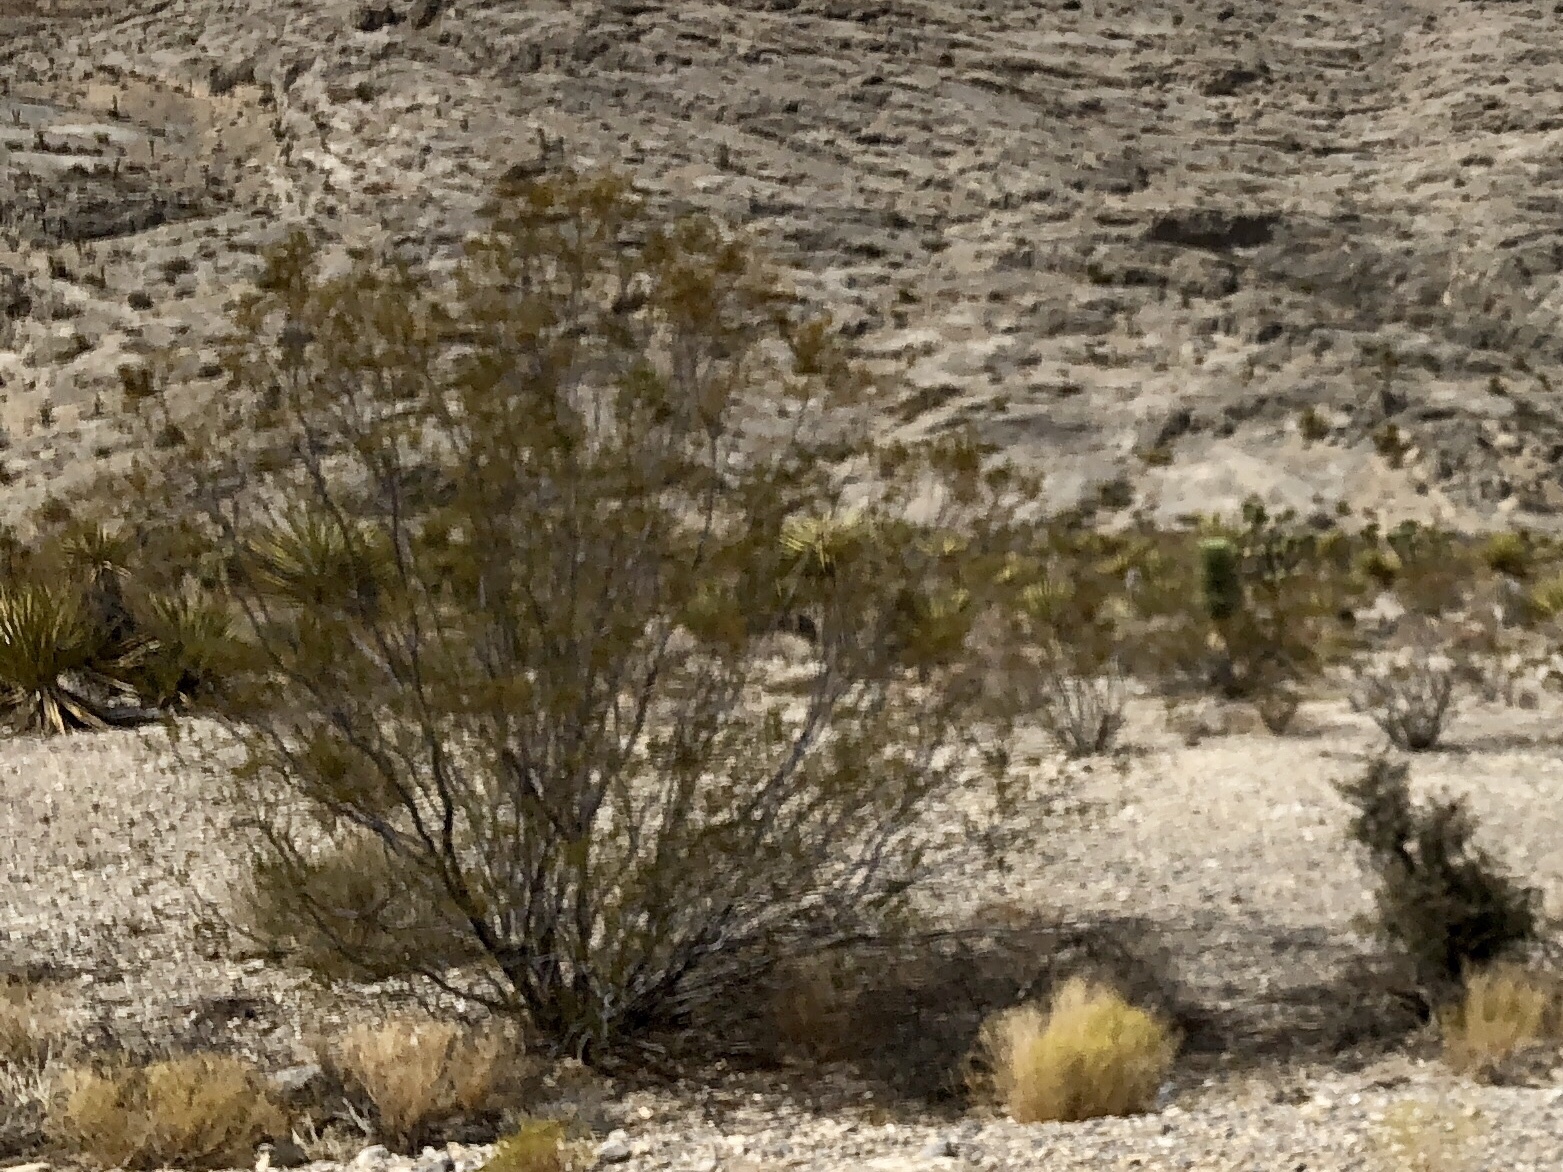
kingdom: Plantae
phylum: Tracheophyta
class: Magnoliopsida
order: Zygophyllales
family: Zygophyllaceae
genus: Larrea
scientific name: Larrea tridentata
